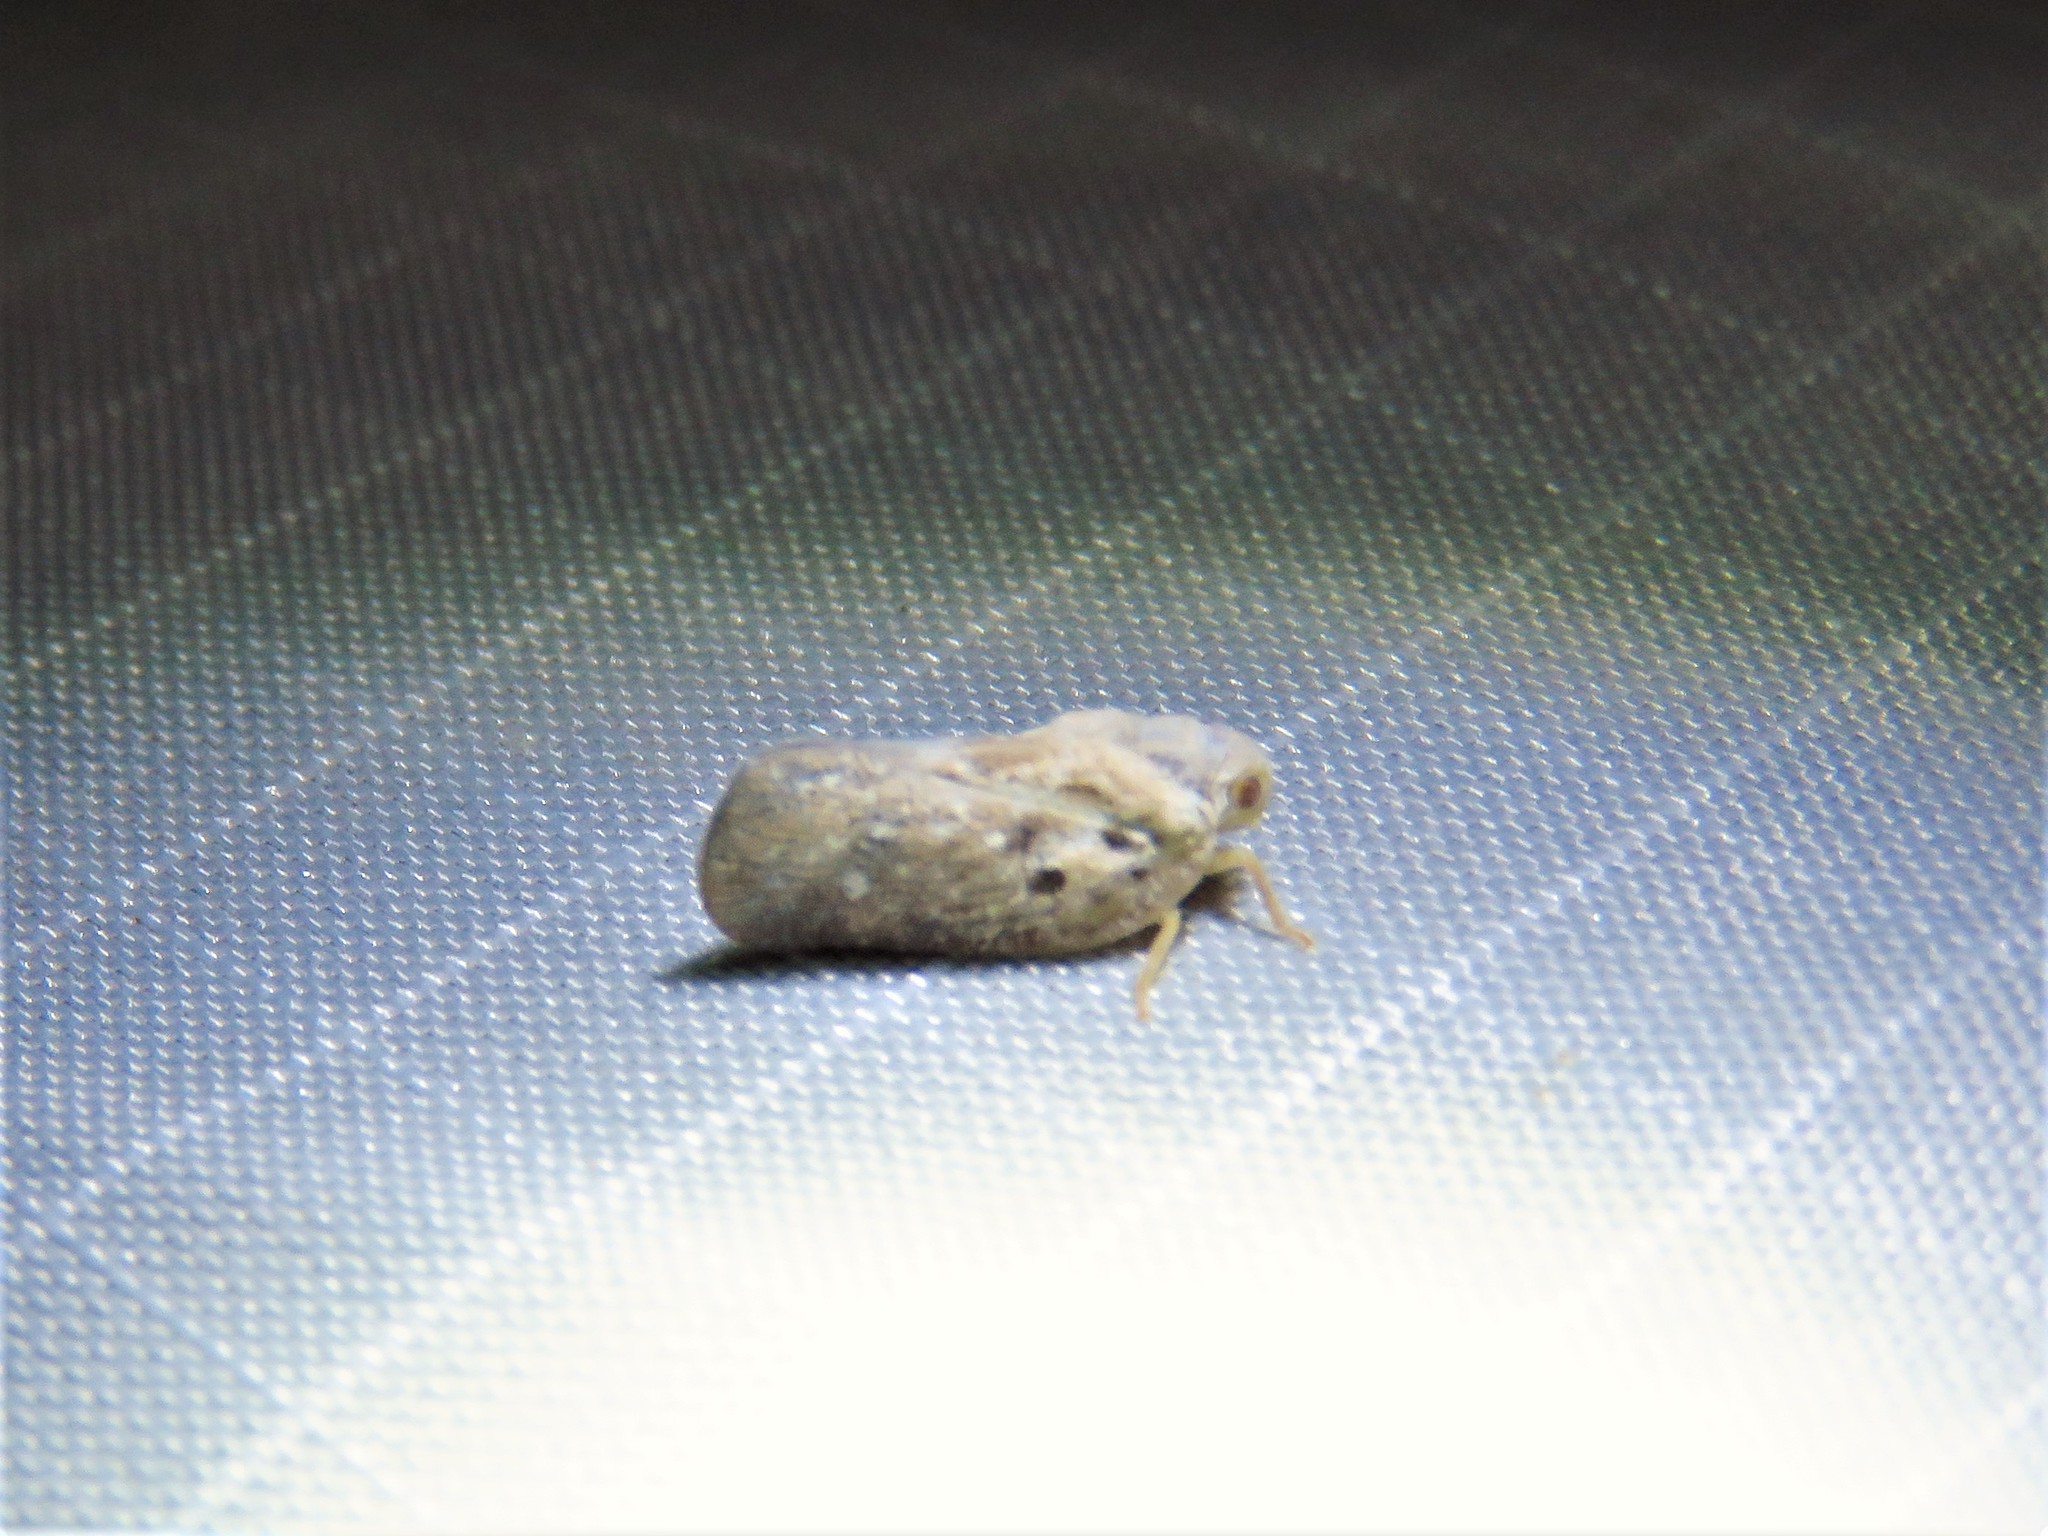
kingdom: Animalia
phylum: Arthropoda
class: Insecta
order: Hemiptera
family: Flatidae
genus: Metcalfa
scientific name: Metcalfa pruinosa
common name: Citrus flatid planthopper
